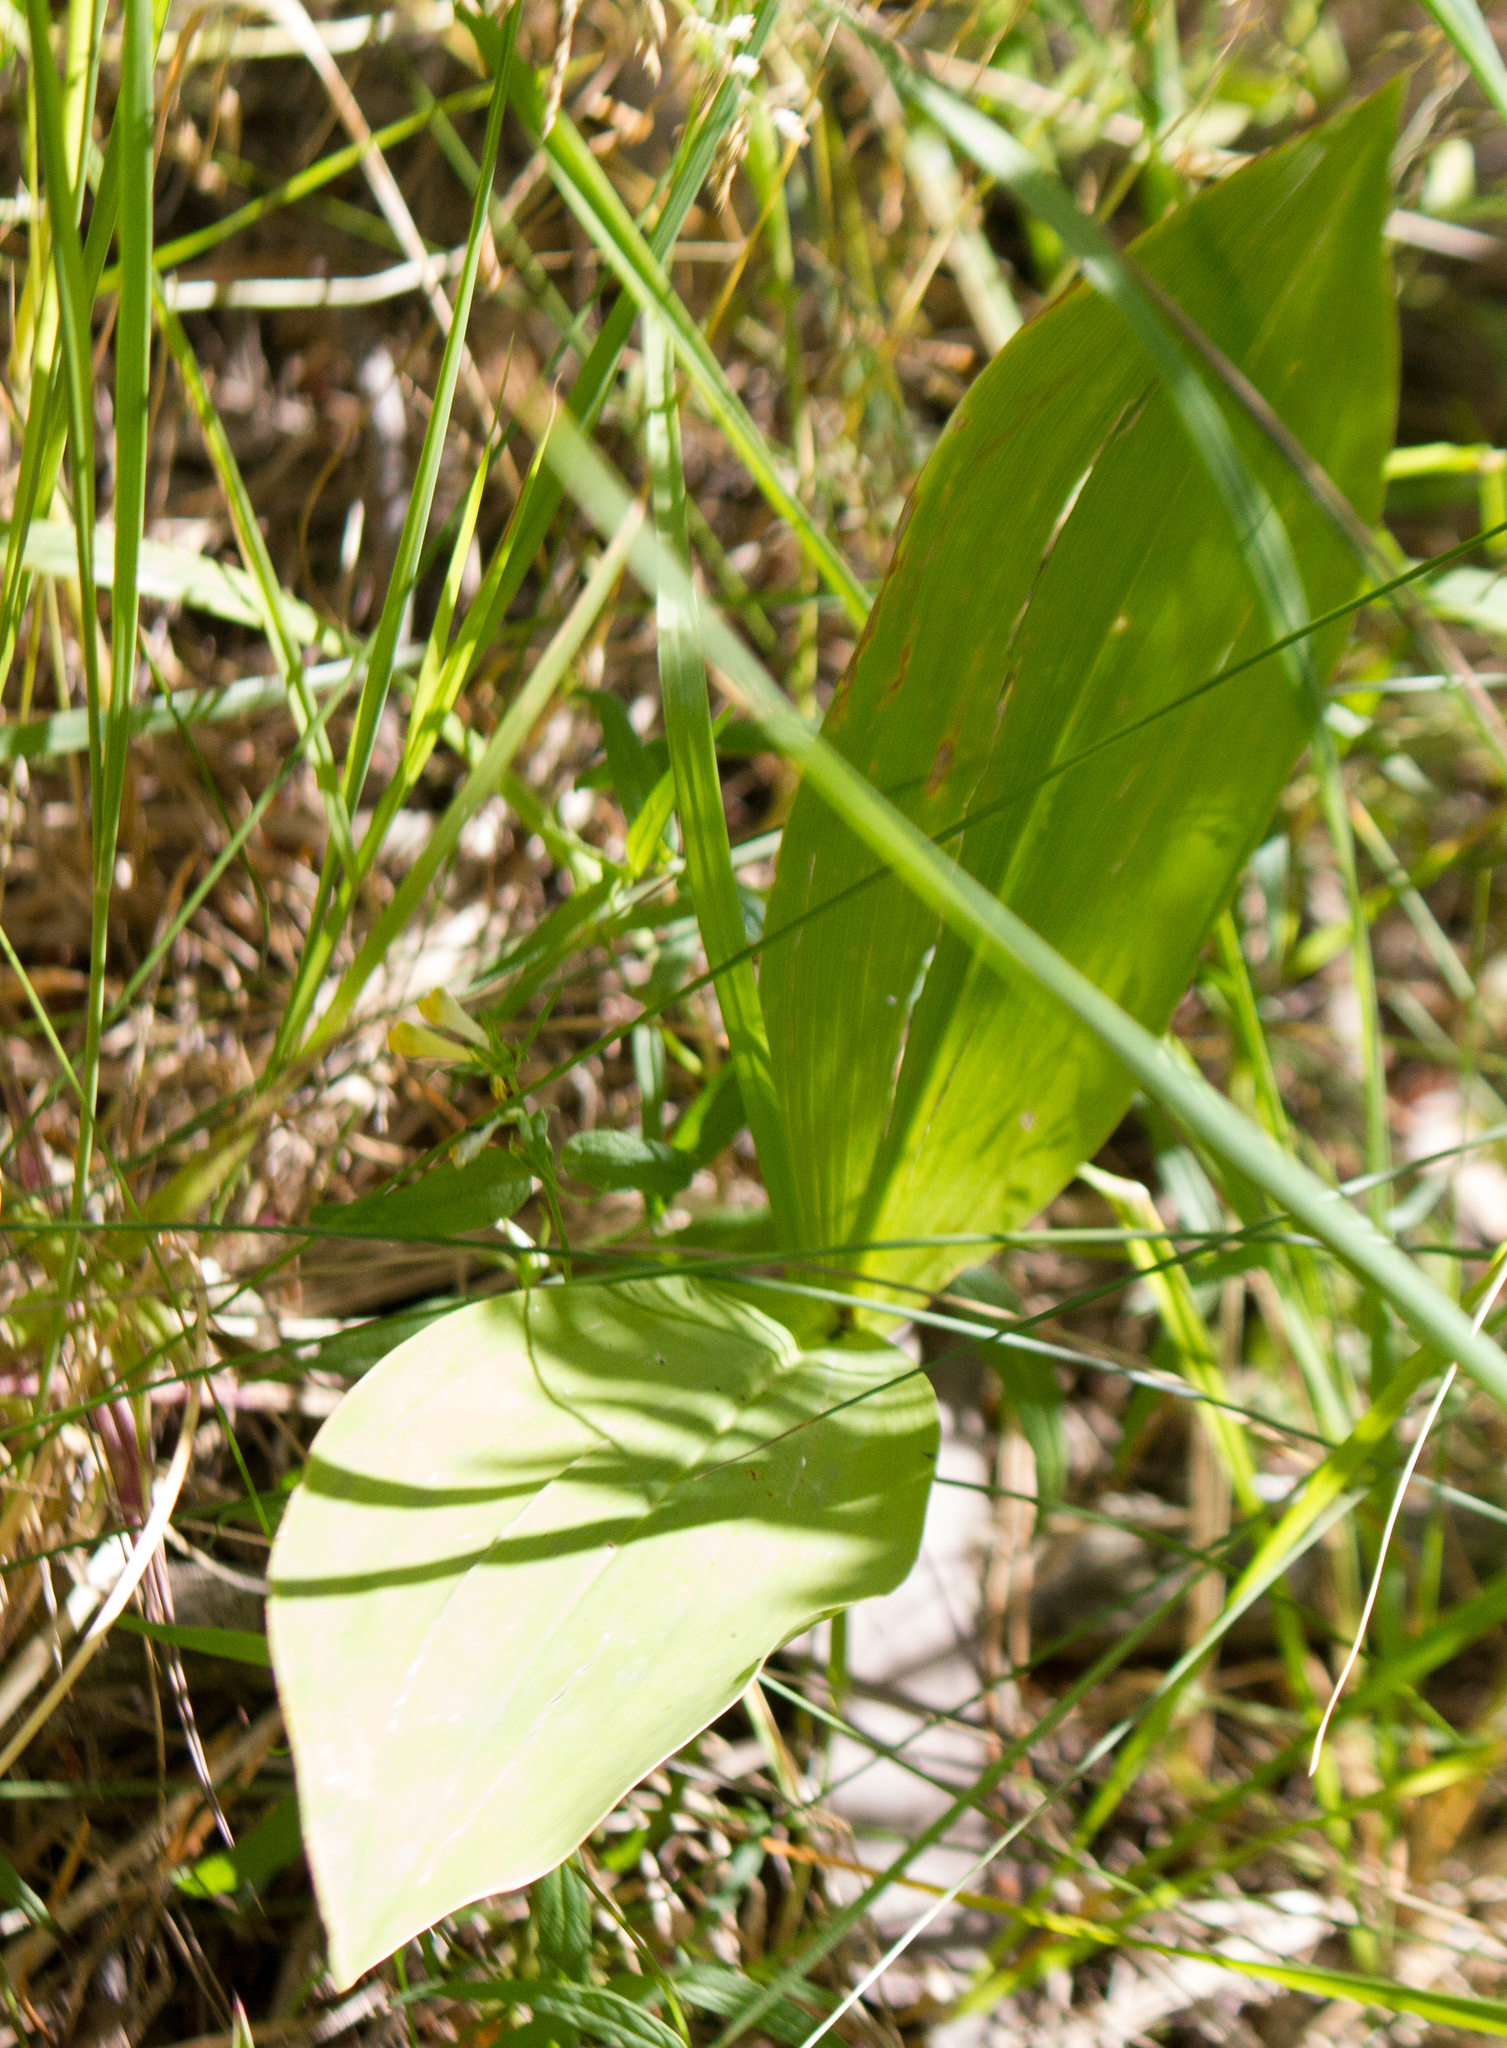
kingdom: Plantae
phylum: Tracheophyta
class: Liliopsida
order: Asparagales
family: Asparagaceae
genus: Convallaria
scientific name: Convallaria majalis
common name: Lily-of-the-valley
